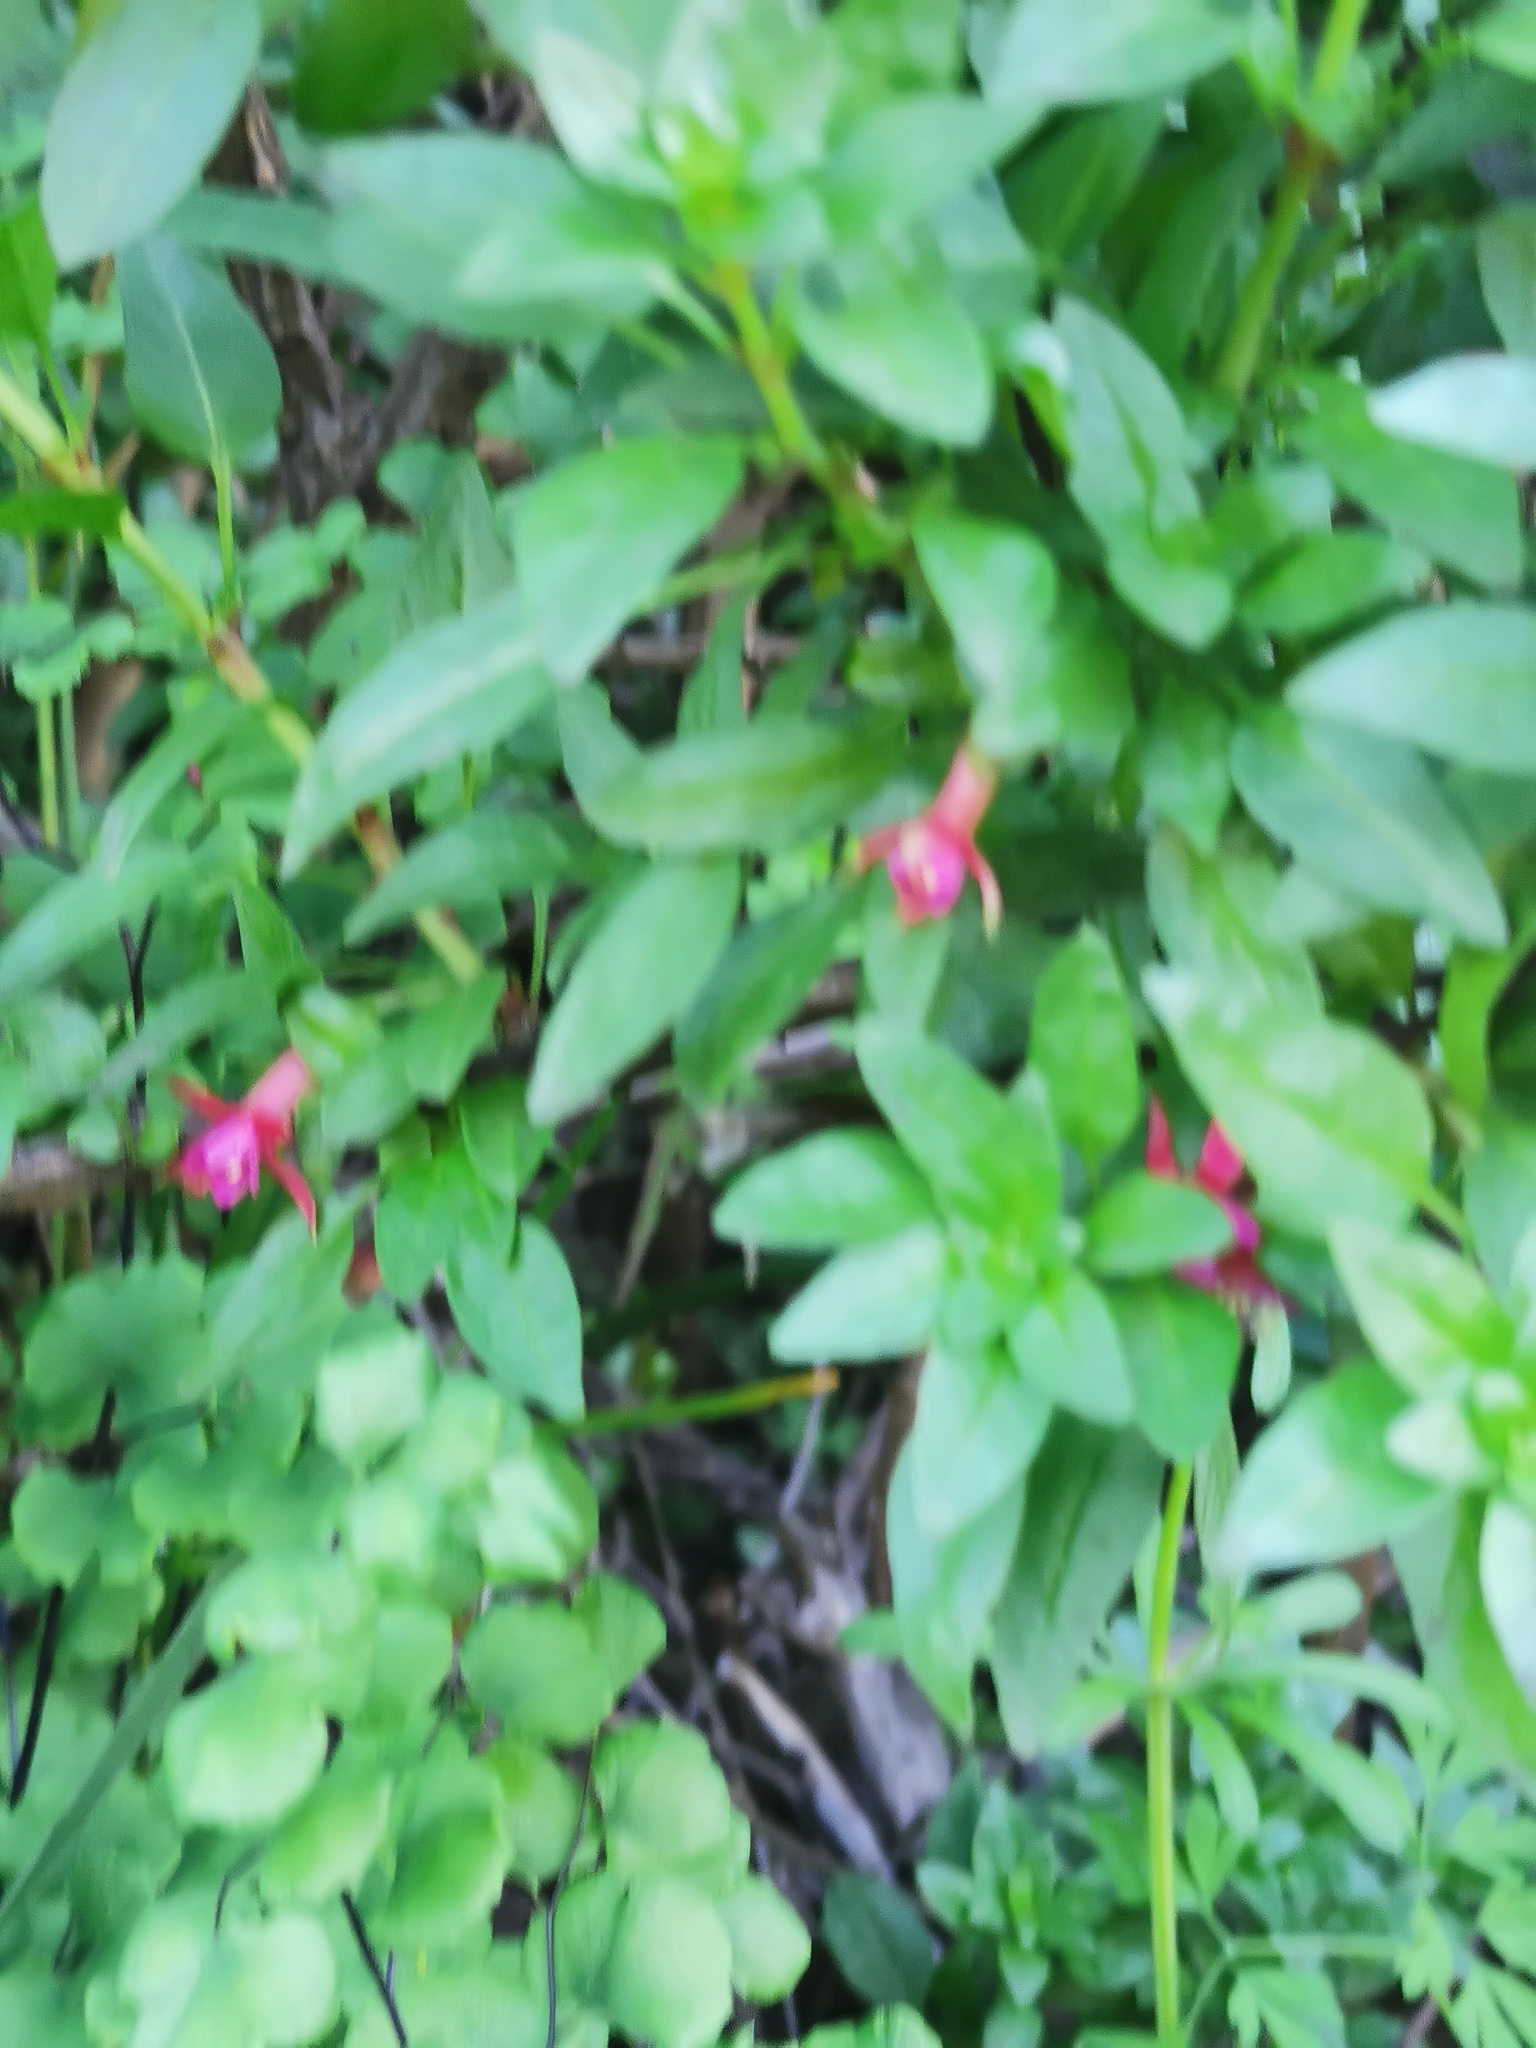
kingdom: Plantae
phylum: Tracheophyta
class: Magnoliopsida
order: Myrtales
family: Onagraceae
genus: Fuchsia
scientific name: Fuchsia lycioides
